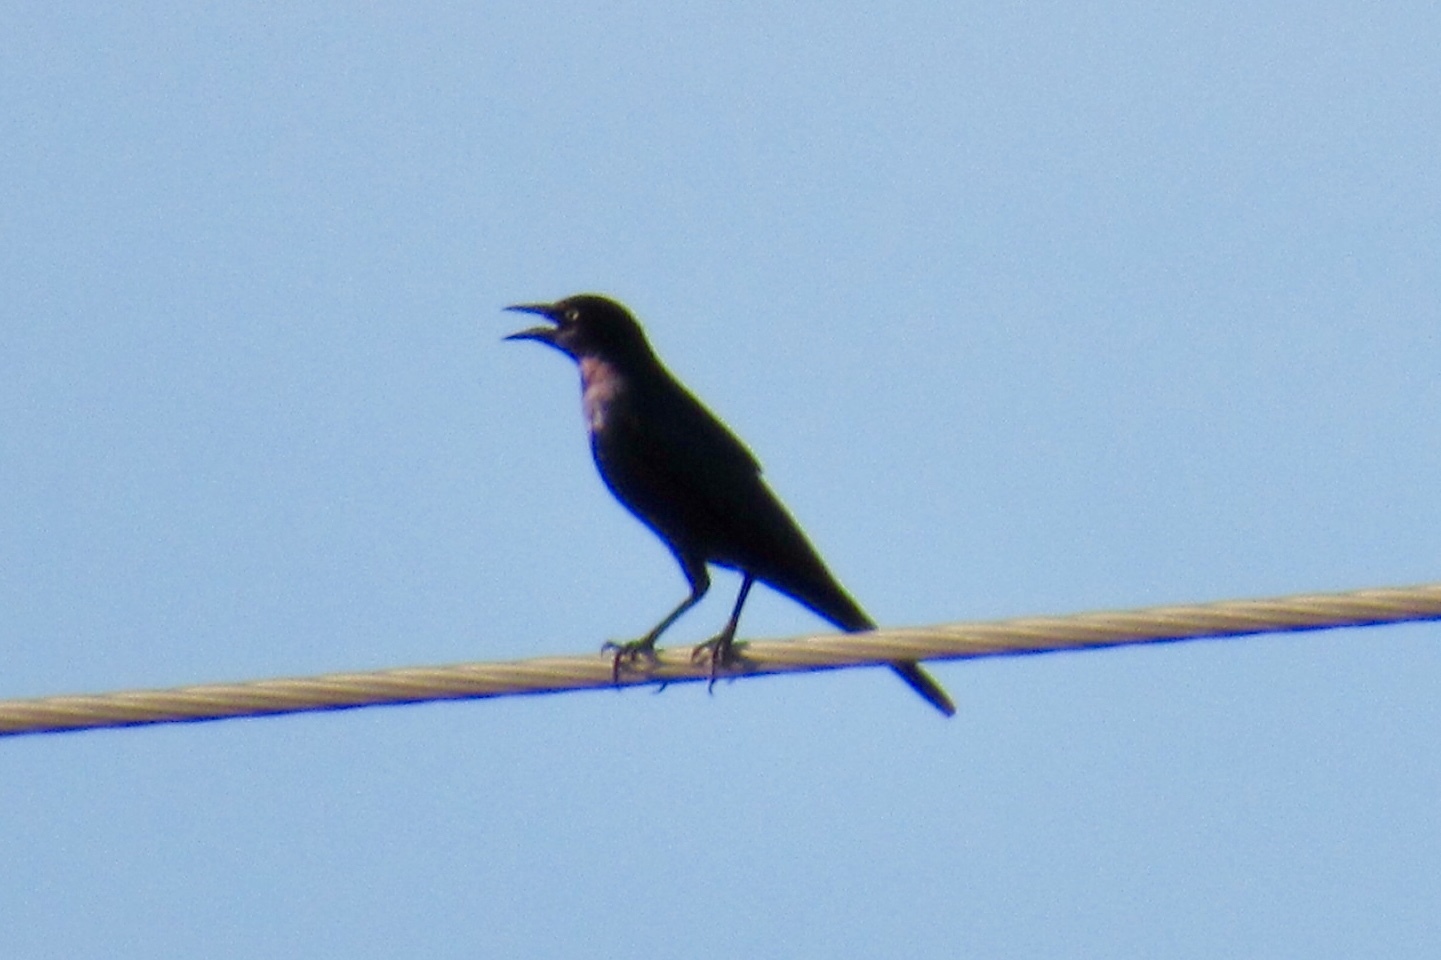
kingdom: Animalia
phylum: Chordata
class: Aves
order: Passeriformes
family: Icteridae
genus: Quiscalus
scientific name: Quiscalus mexicanus
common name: Great-tailed grackle
